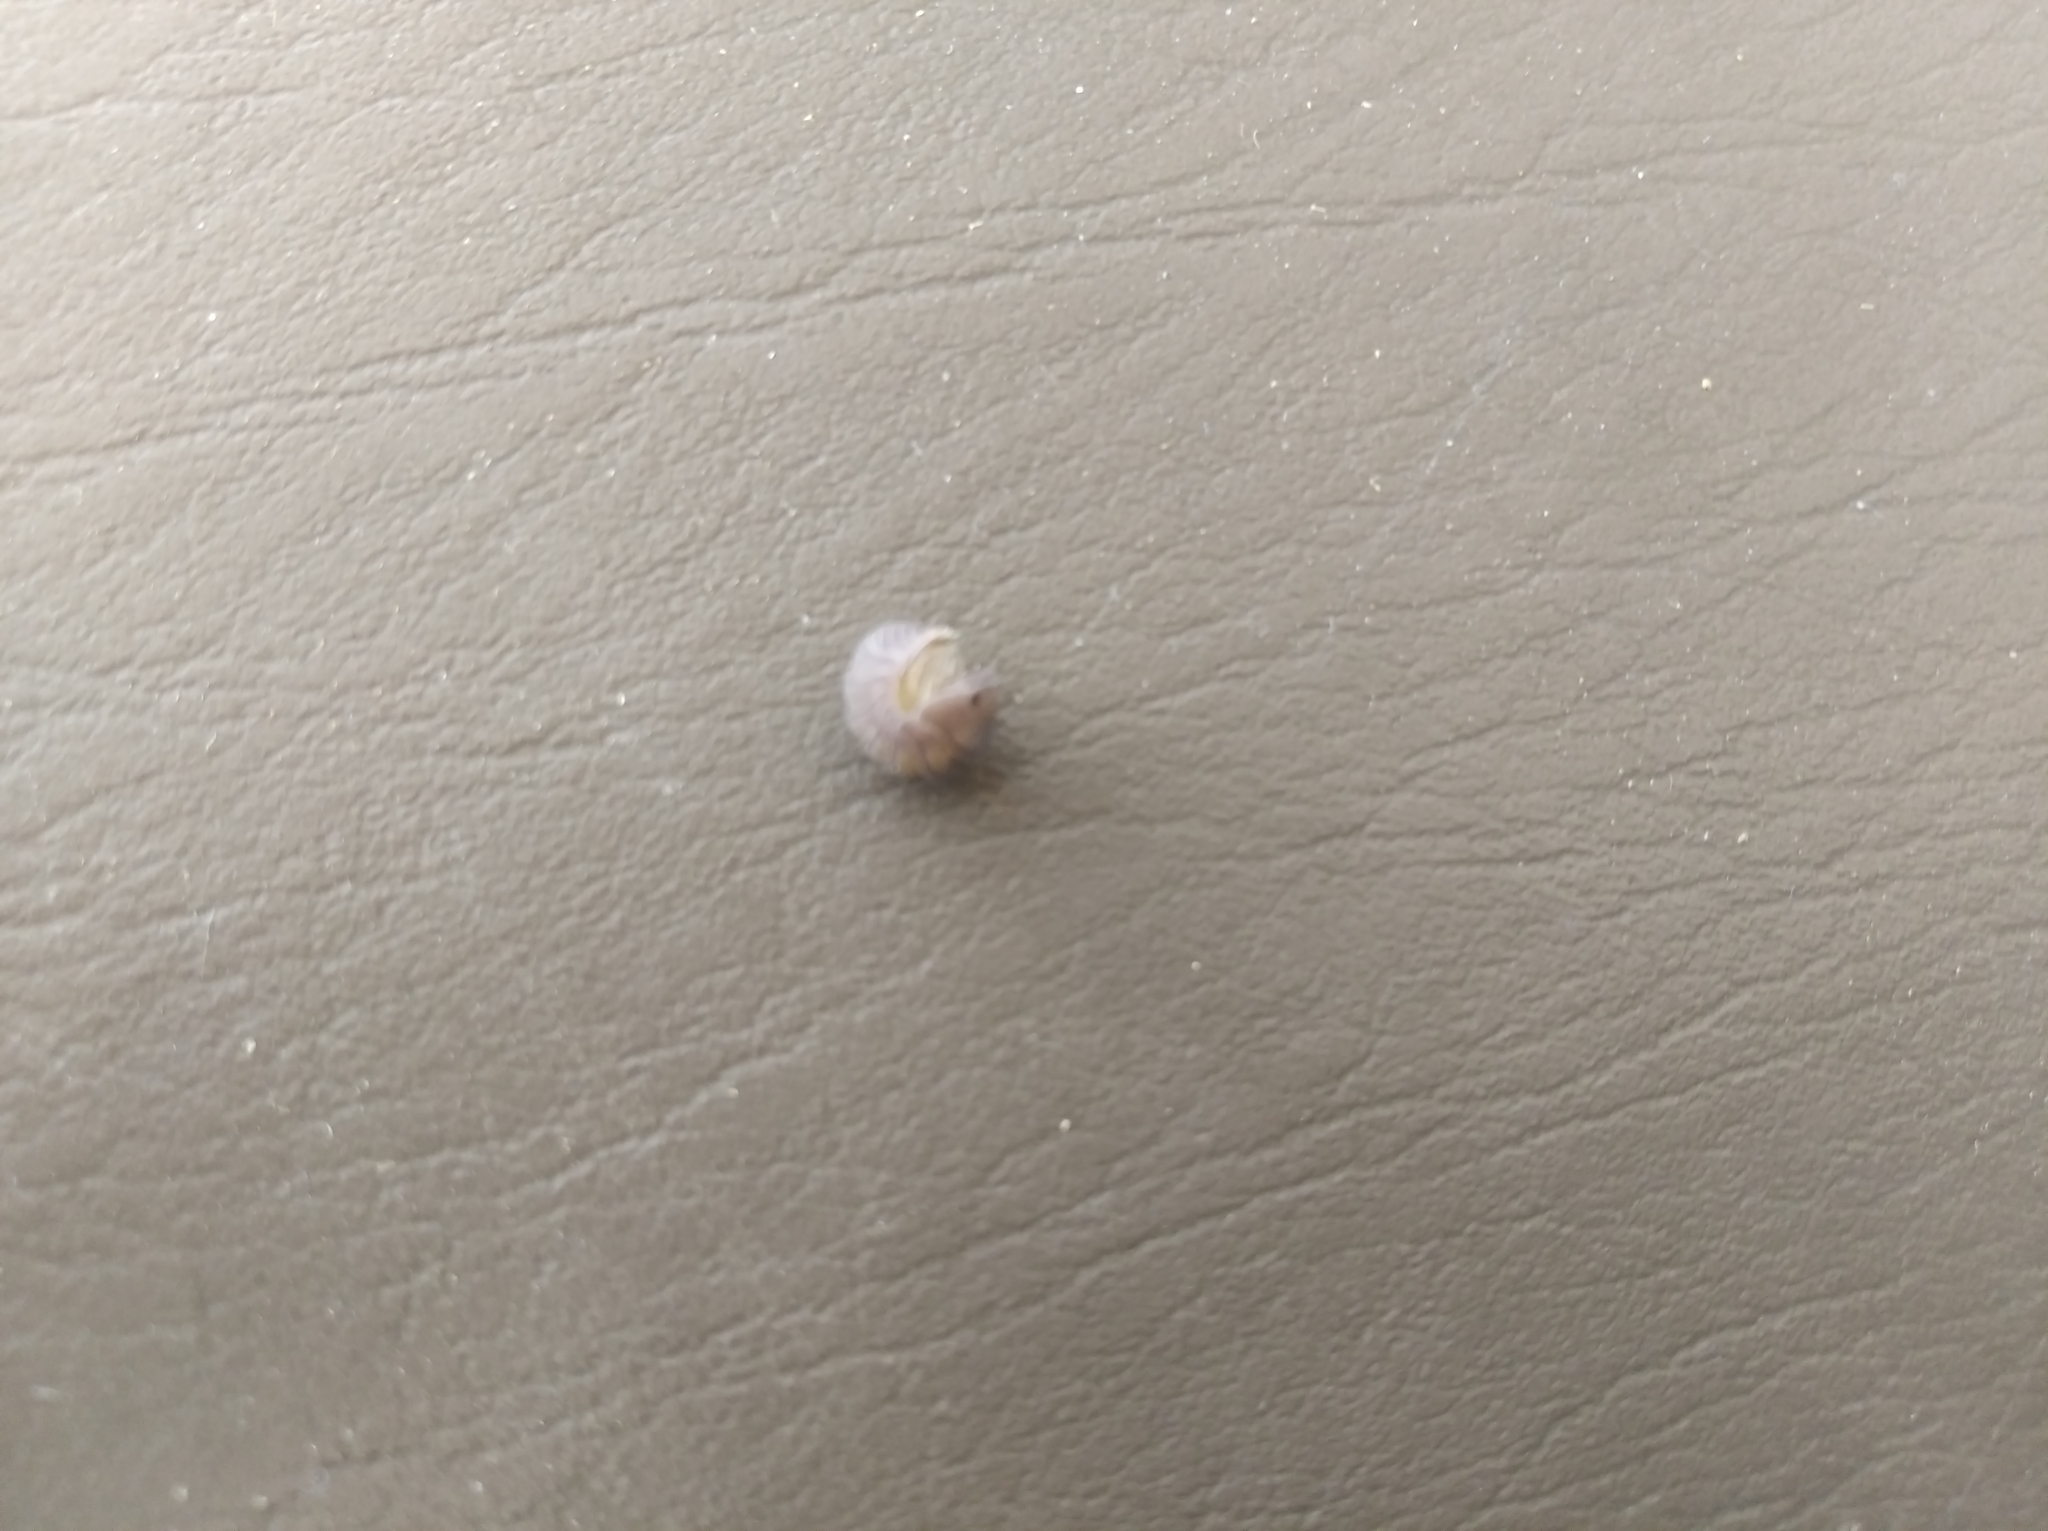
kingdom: Animalia
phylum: Arthropoda
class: Malacostraca
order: Isopoda
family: Armadillidae
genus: Cubaris
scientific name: Cubaris murina
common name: Pillbug
